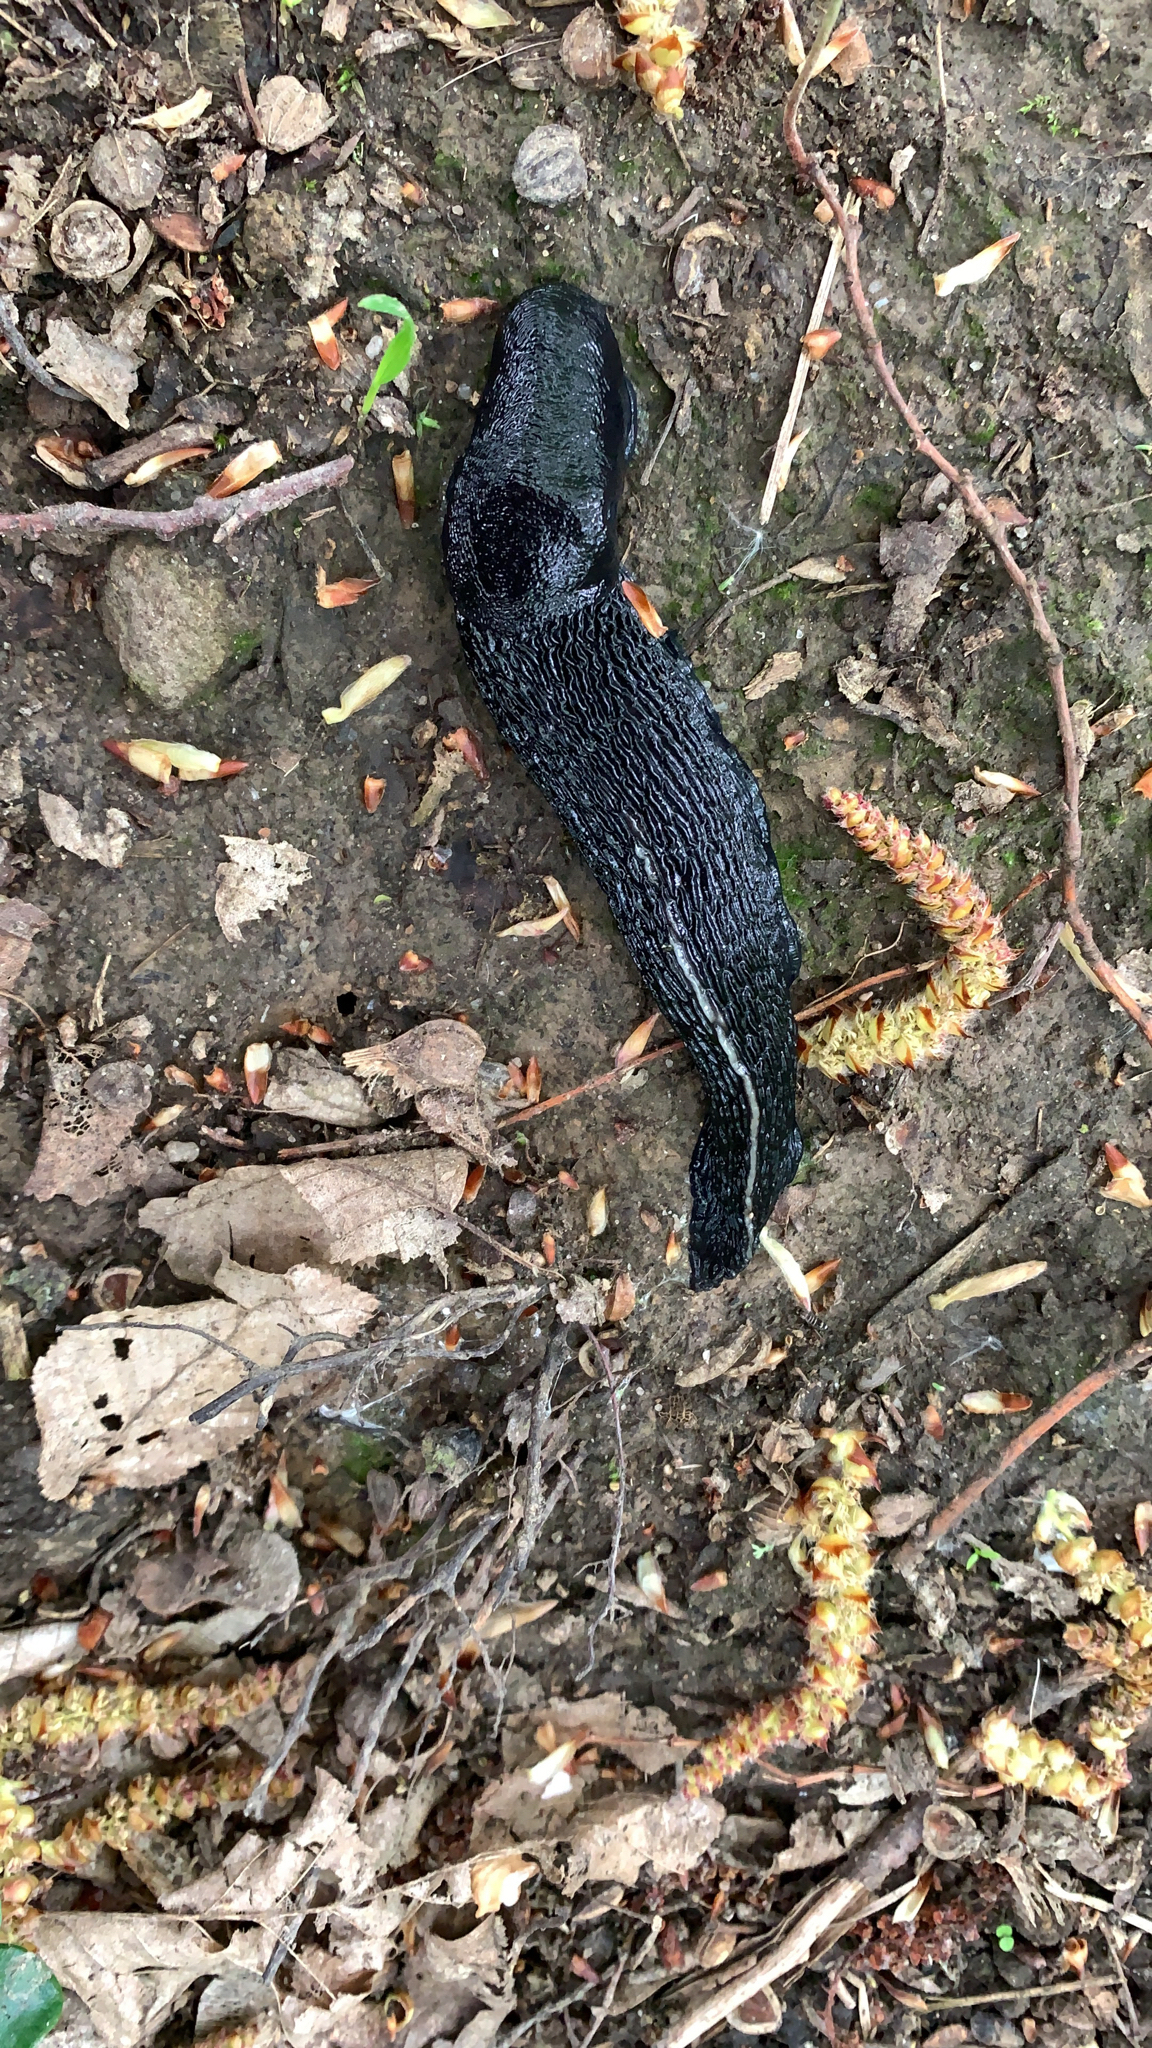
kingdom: Animalia
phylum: Mollusca
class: Gastropoda
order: Stylommatophora
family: Limacidae
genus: Limax
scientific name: Limax cinereoniger
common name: Ash-black slug
